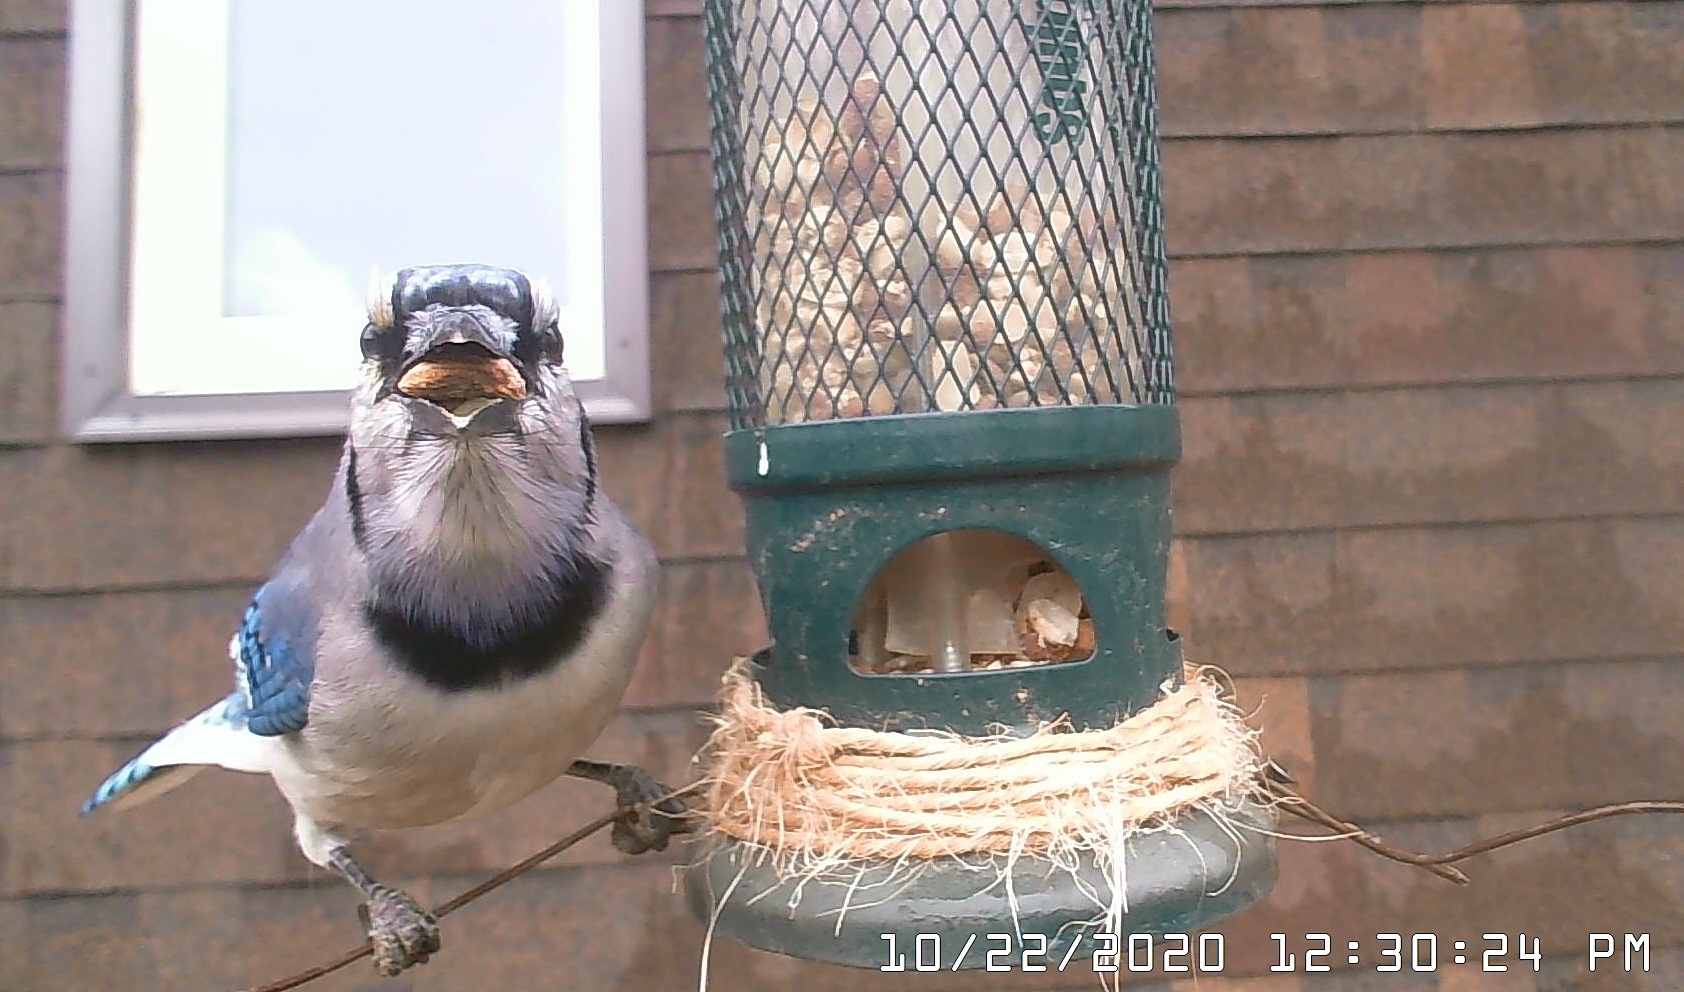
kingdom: Animalia
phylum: Chordata
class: Aves
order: Passeriformes
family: Corvidae
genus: Cyanocitta
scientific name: Cyanocitta cristata
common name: Blue jay
